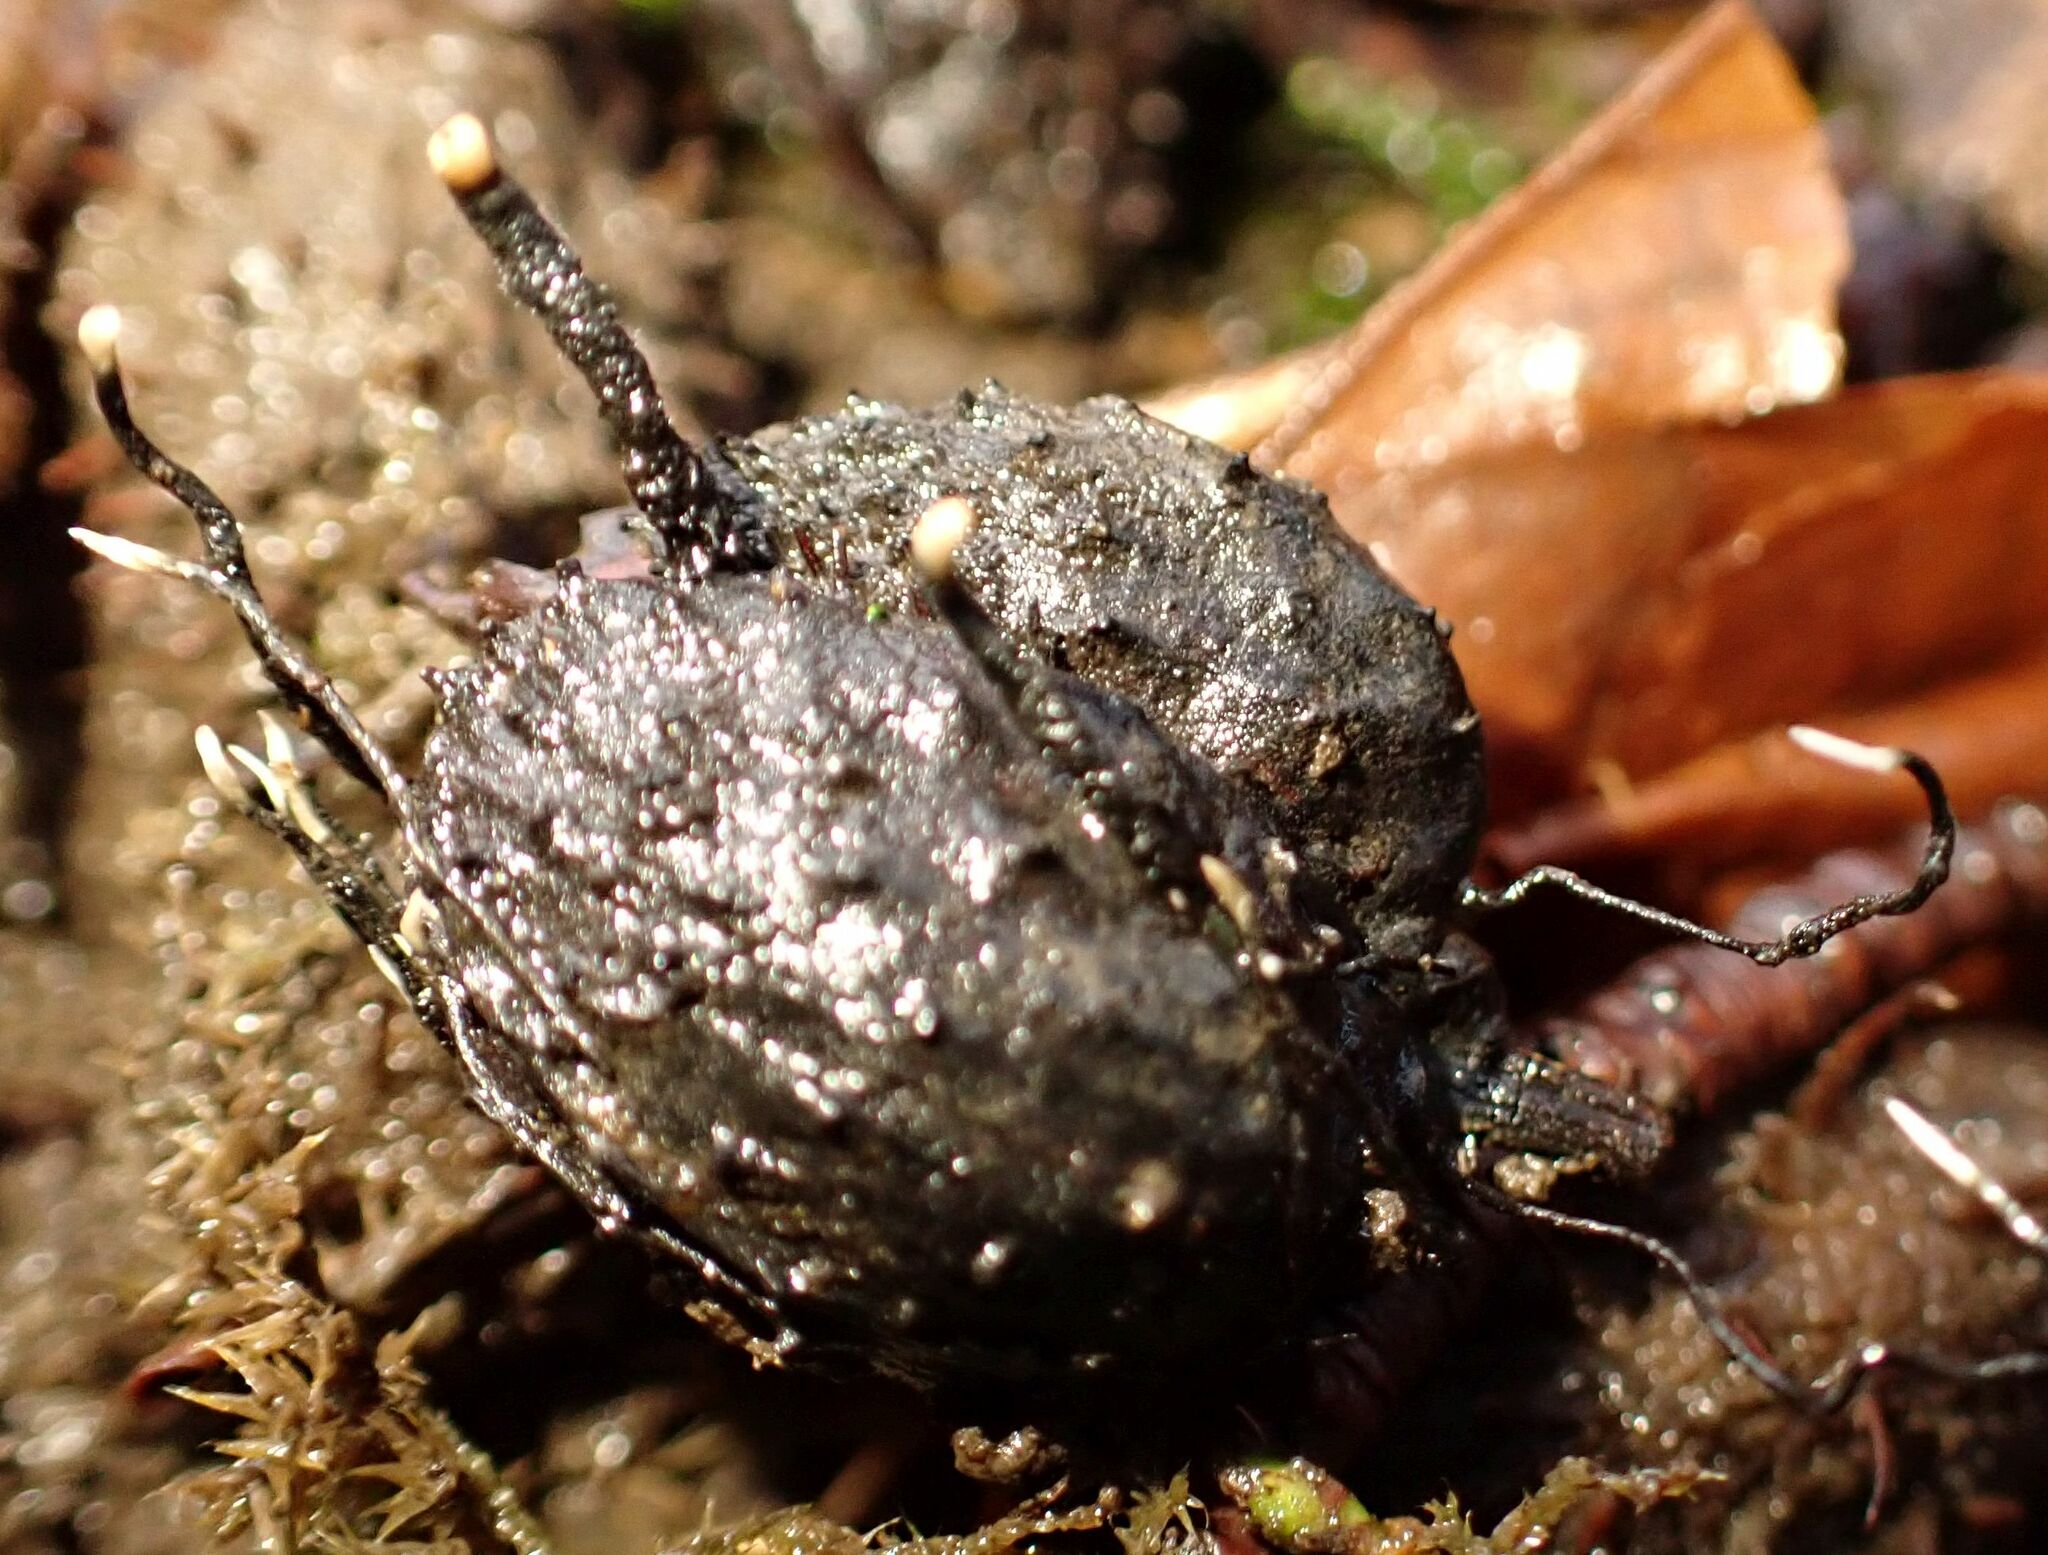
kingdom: Fungi
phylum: Ascomycota
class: Sordariomycetes
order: Xylariales
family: Xylariaceae
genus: Xylaria
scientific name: Xylaria carpophila
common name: Beechmast candlesnuff
